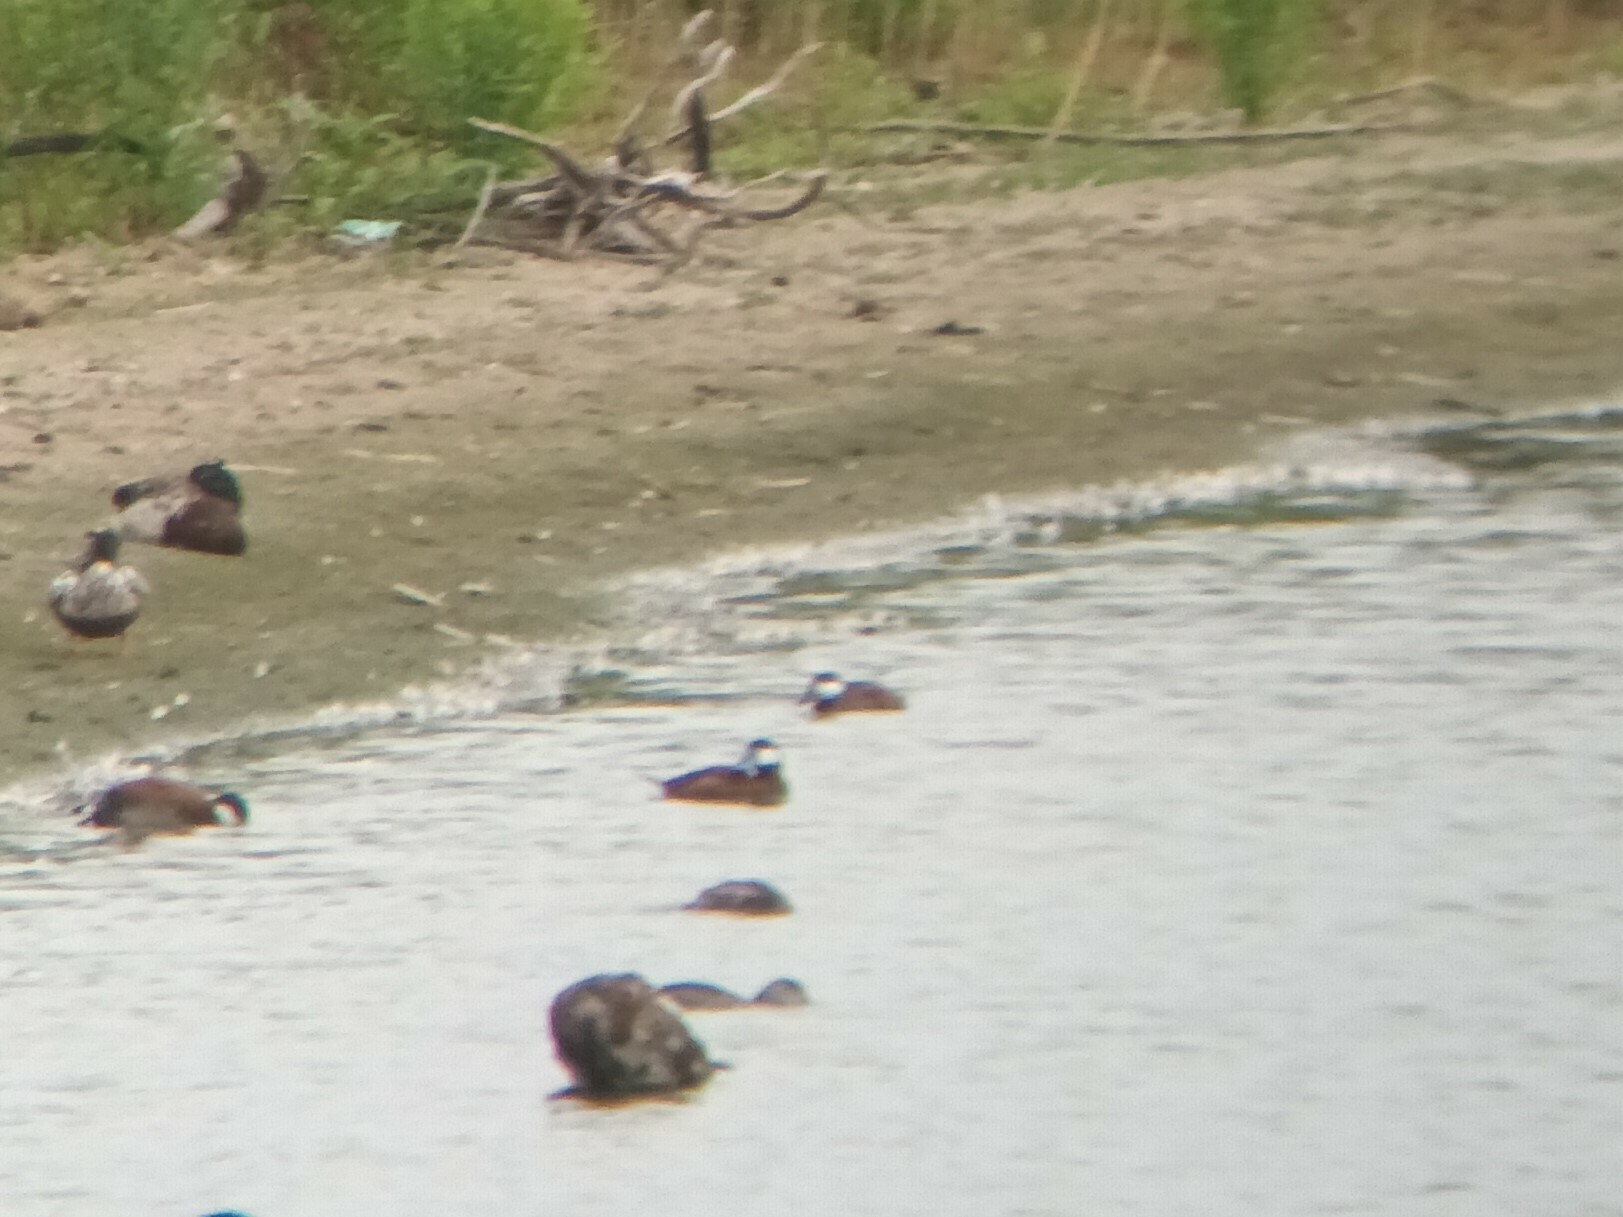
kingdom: Animalia
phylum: Chordata
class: Aves
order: Anseriformes
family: Anatidae
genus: Oxyura
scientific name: Oxyura jamaicensis
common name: Ruddy duck
